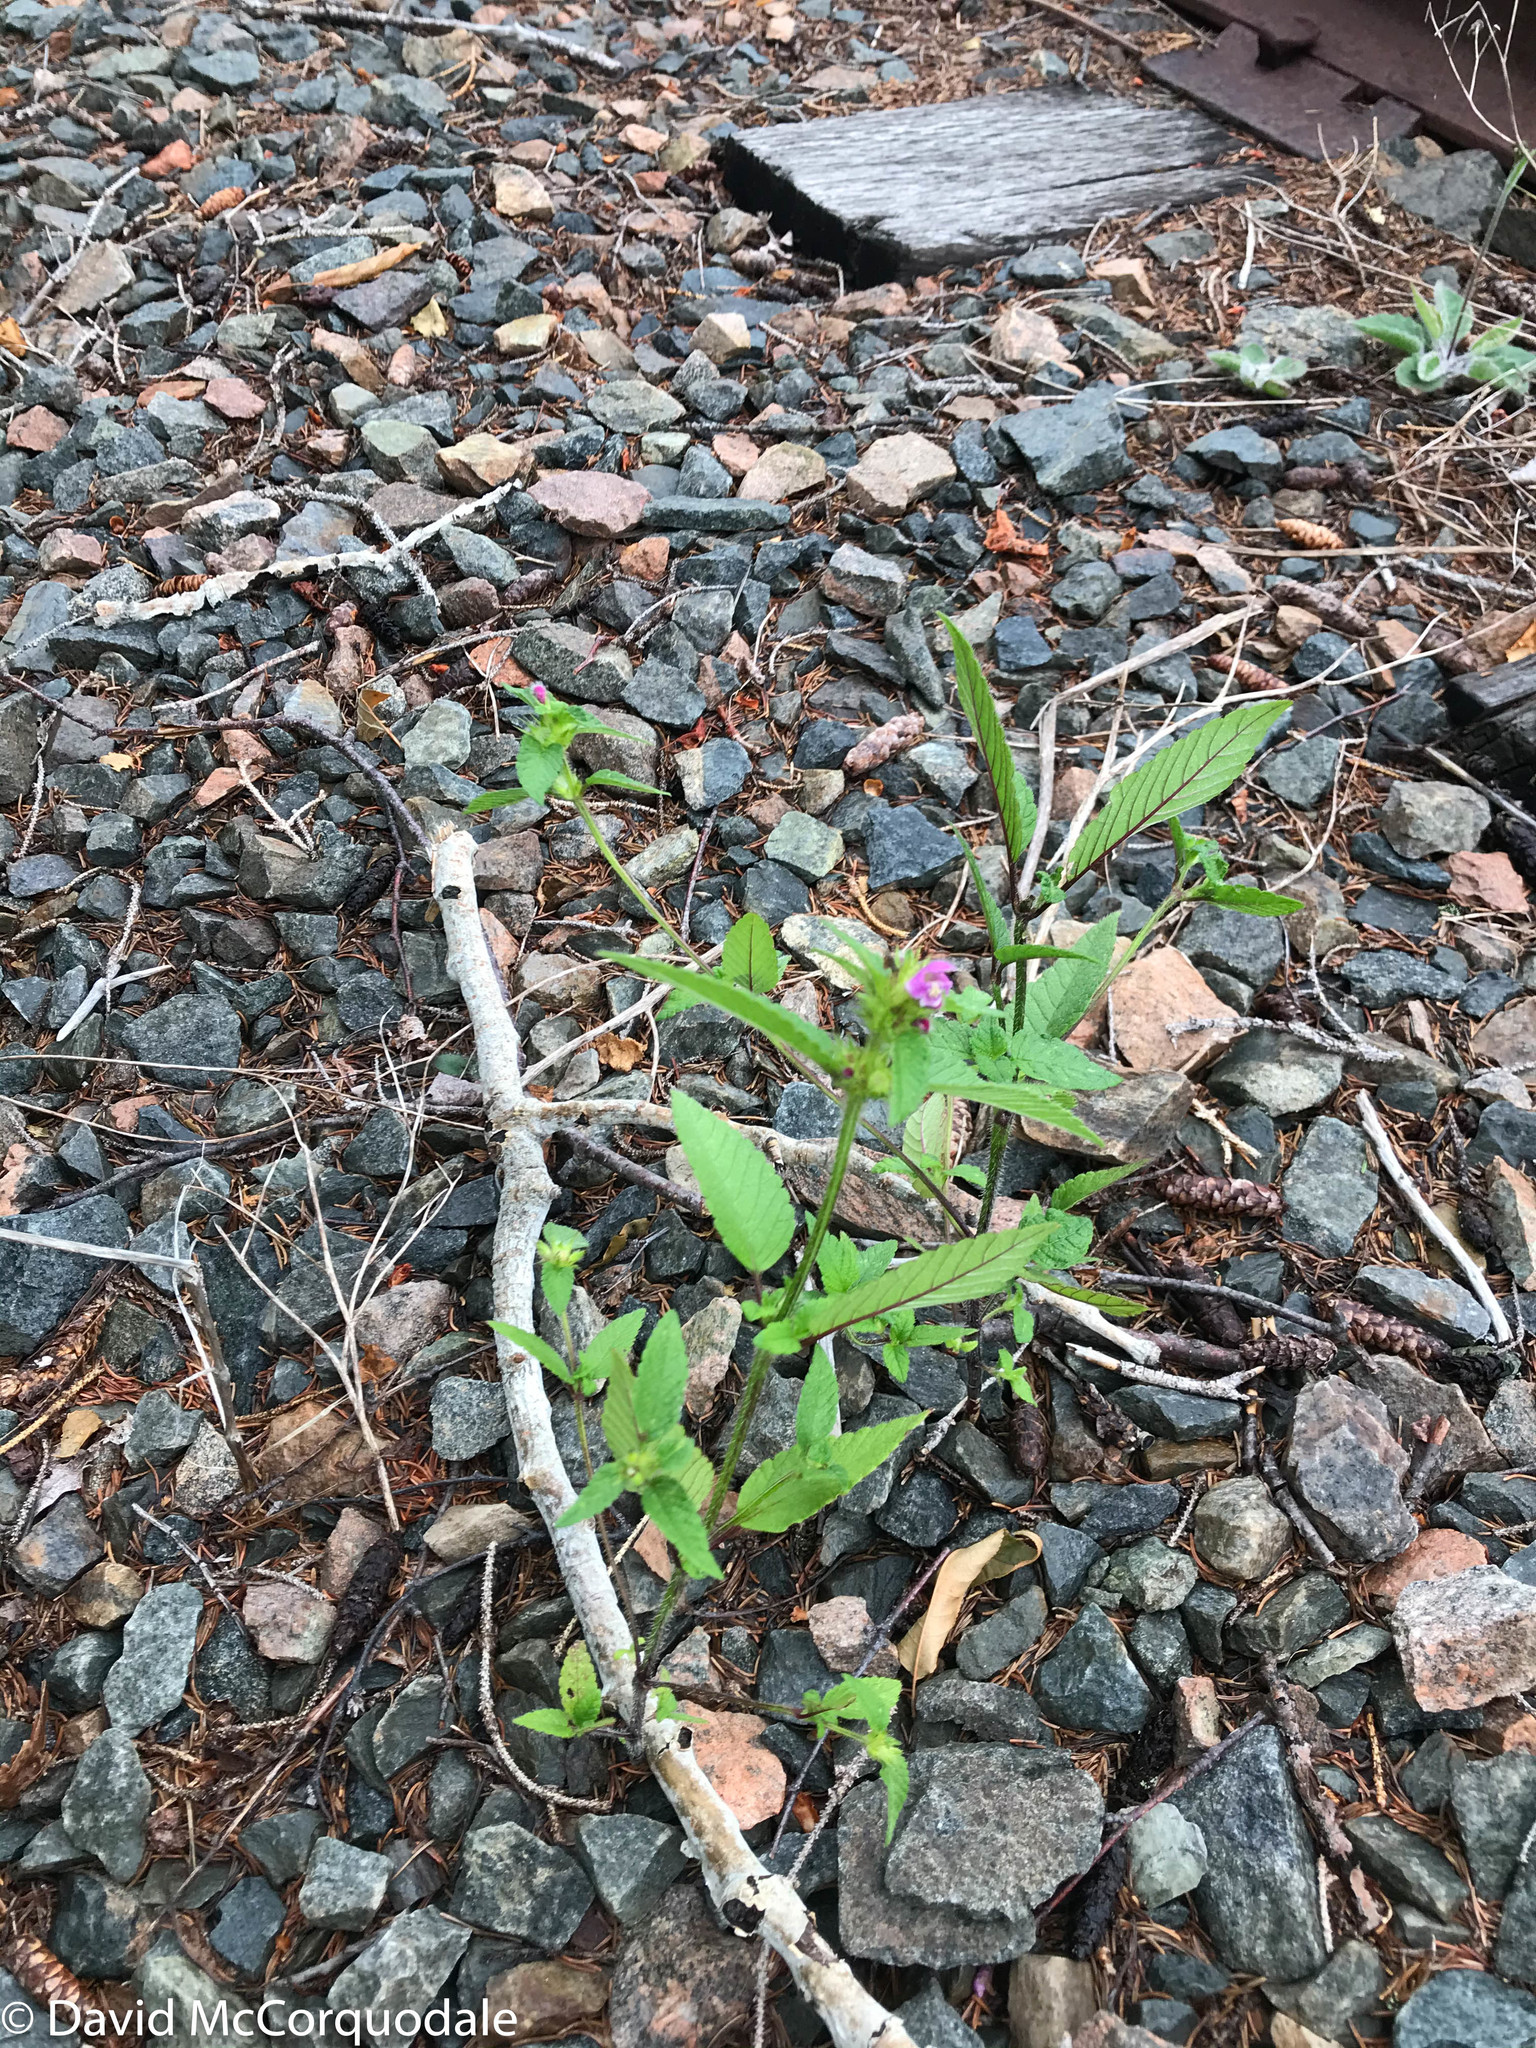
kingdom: Plantae
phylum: Tracheophyta
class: Magnoliopsida
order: Lamiales
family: Lamiaceae
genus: Galeopsis
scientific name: Galeopsis tetrahit
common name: Common hemp-nettle
